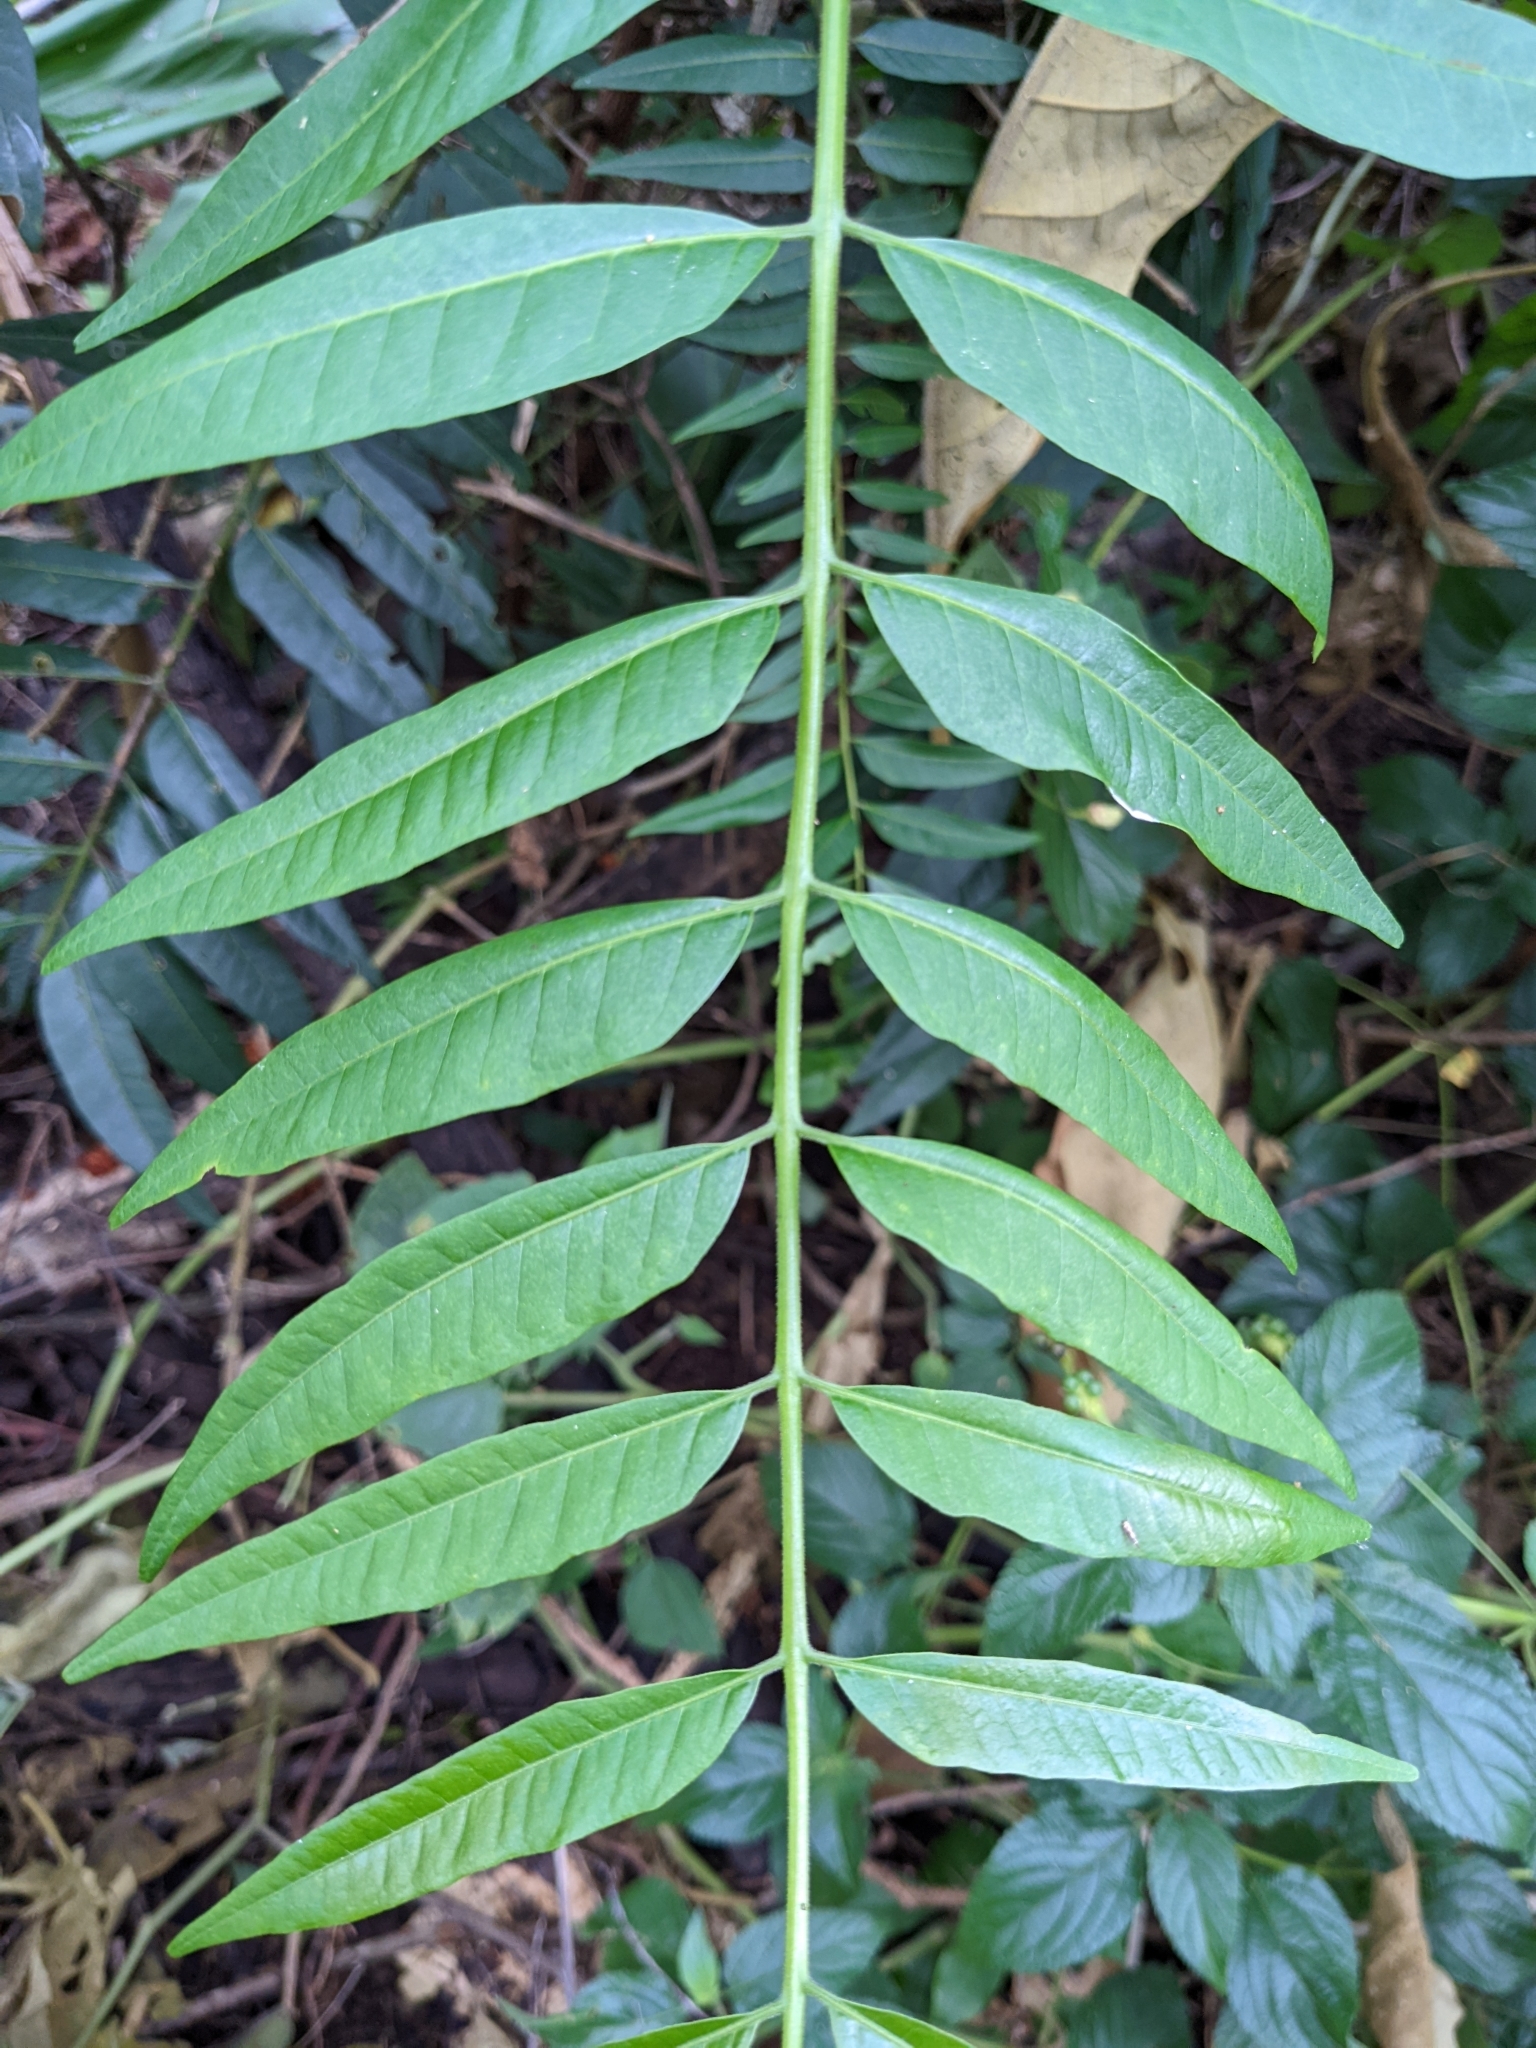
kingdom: Plantae
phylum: Tracheophyta
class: Magnoliopsida
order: Sapindales
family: Simaroubaceae
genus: Ailanthus
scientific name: Ailanthus triphysa
